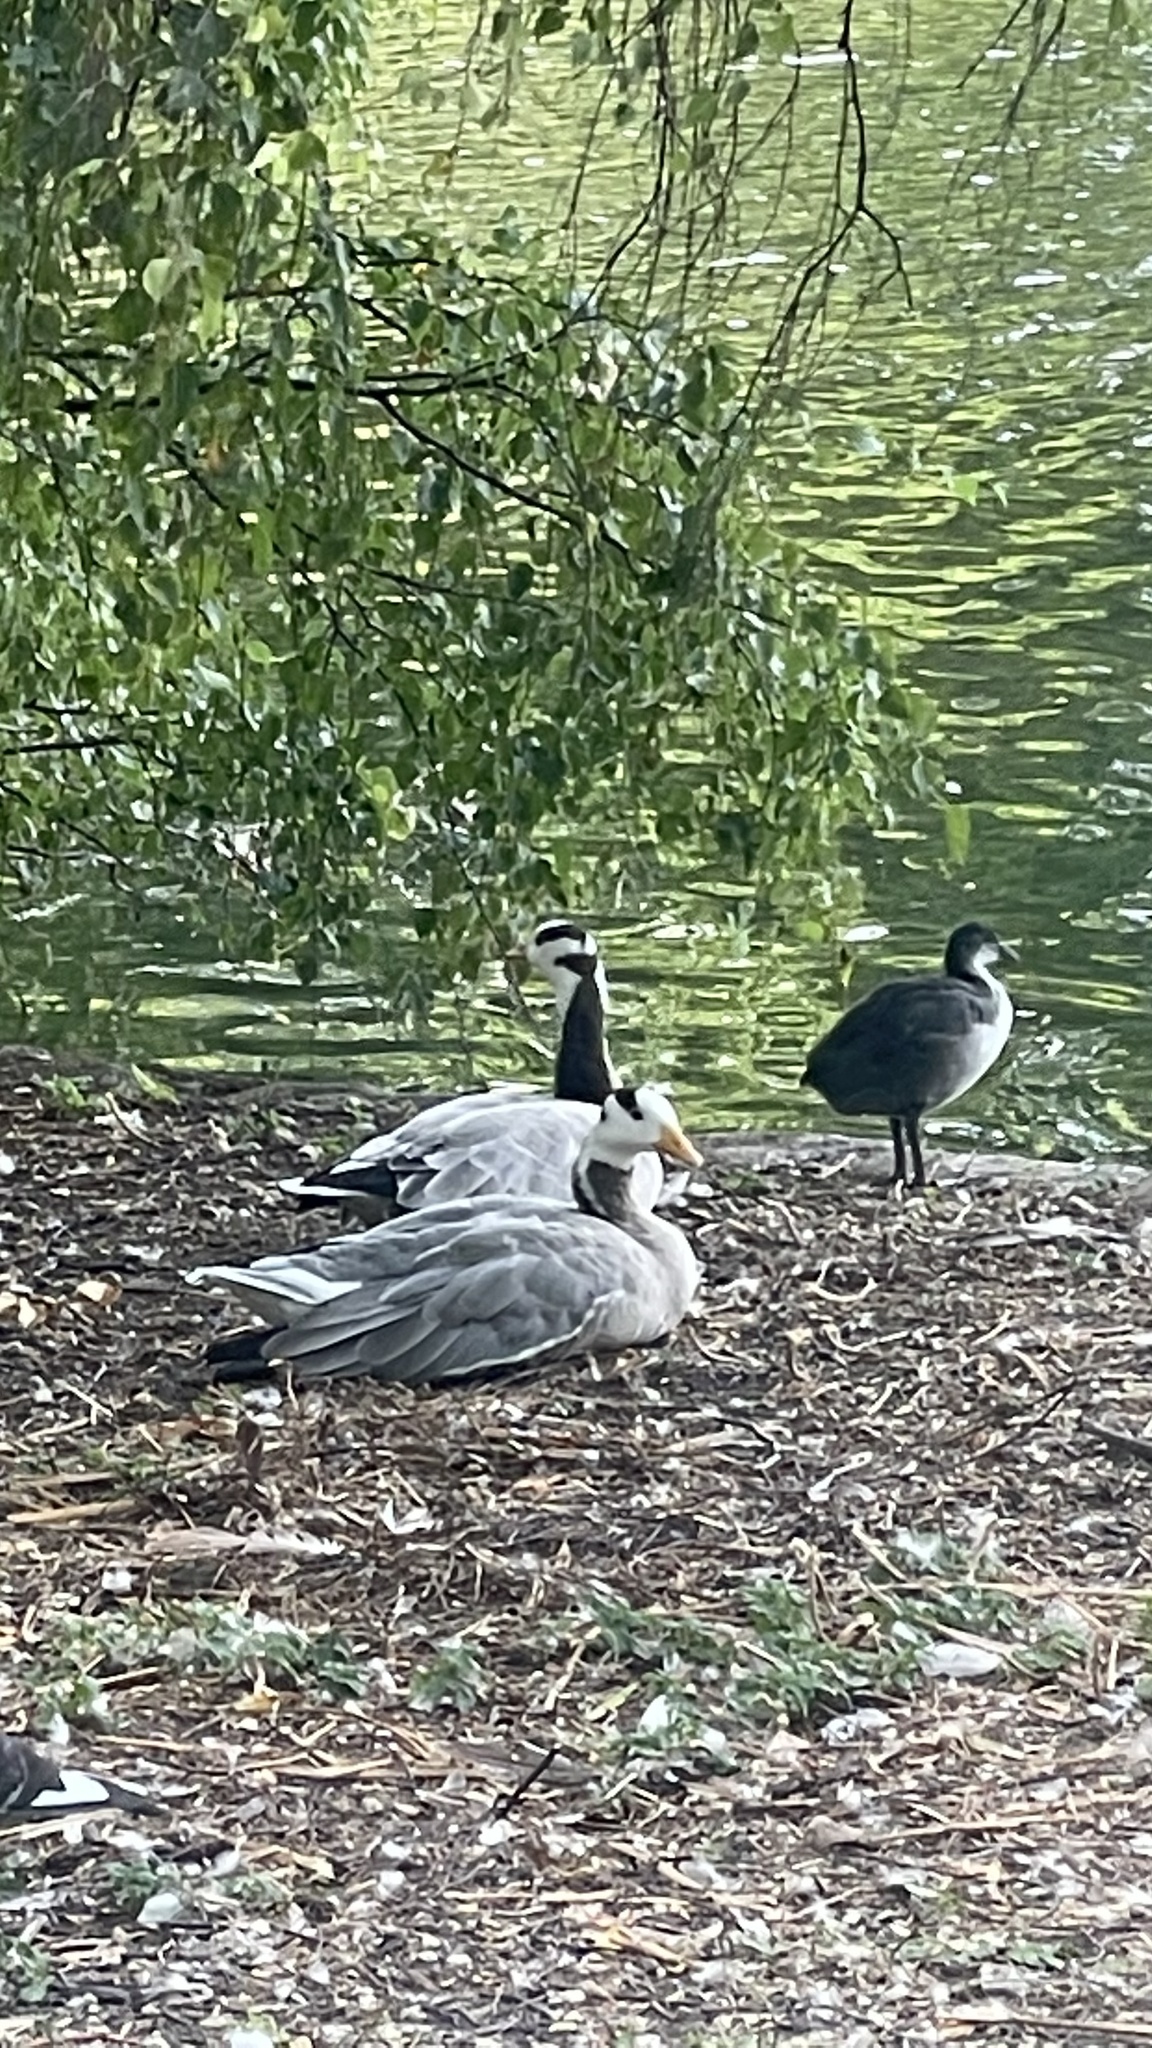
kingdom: Animalia
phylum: Chordata
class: Aves
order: Anseriformes
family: Anatidae
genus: Anser
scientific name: Anser indicus
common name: Bar-headed goose
